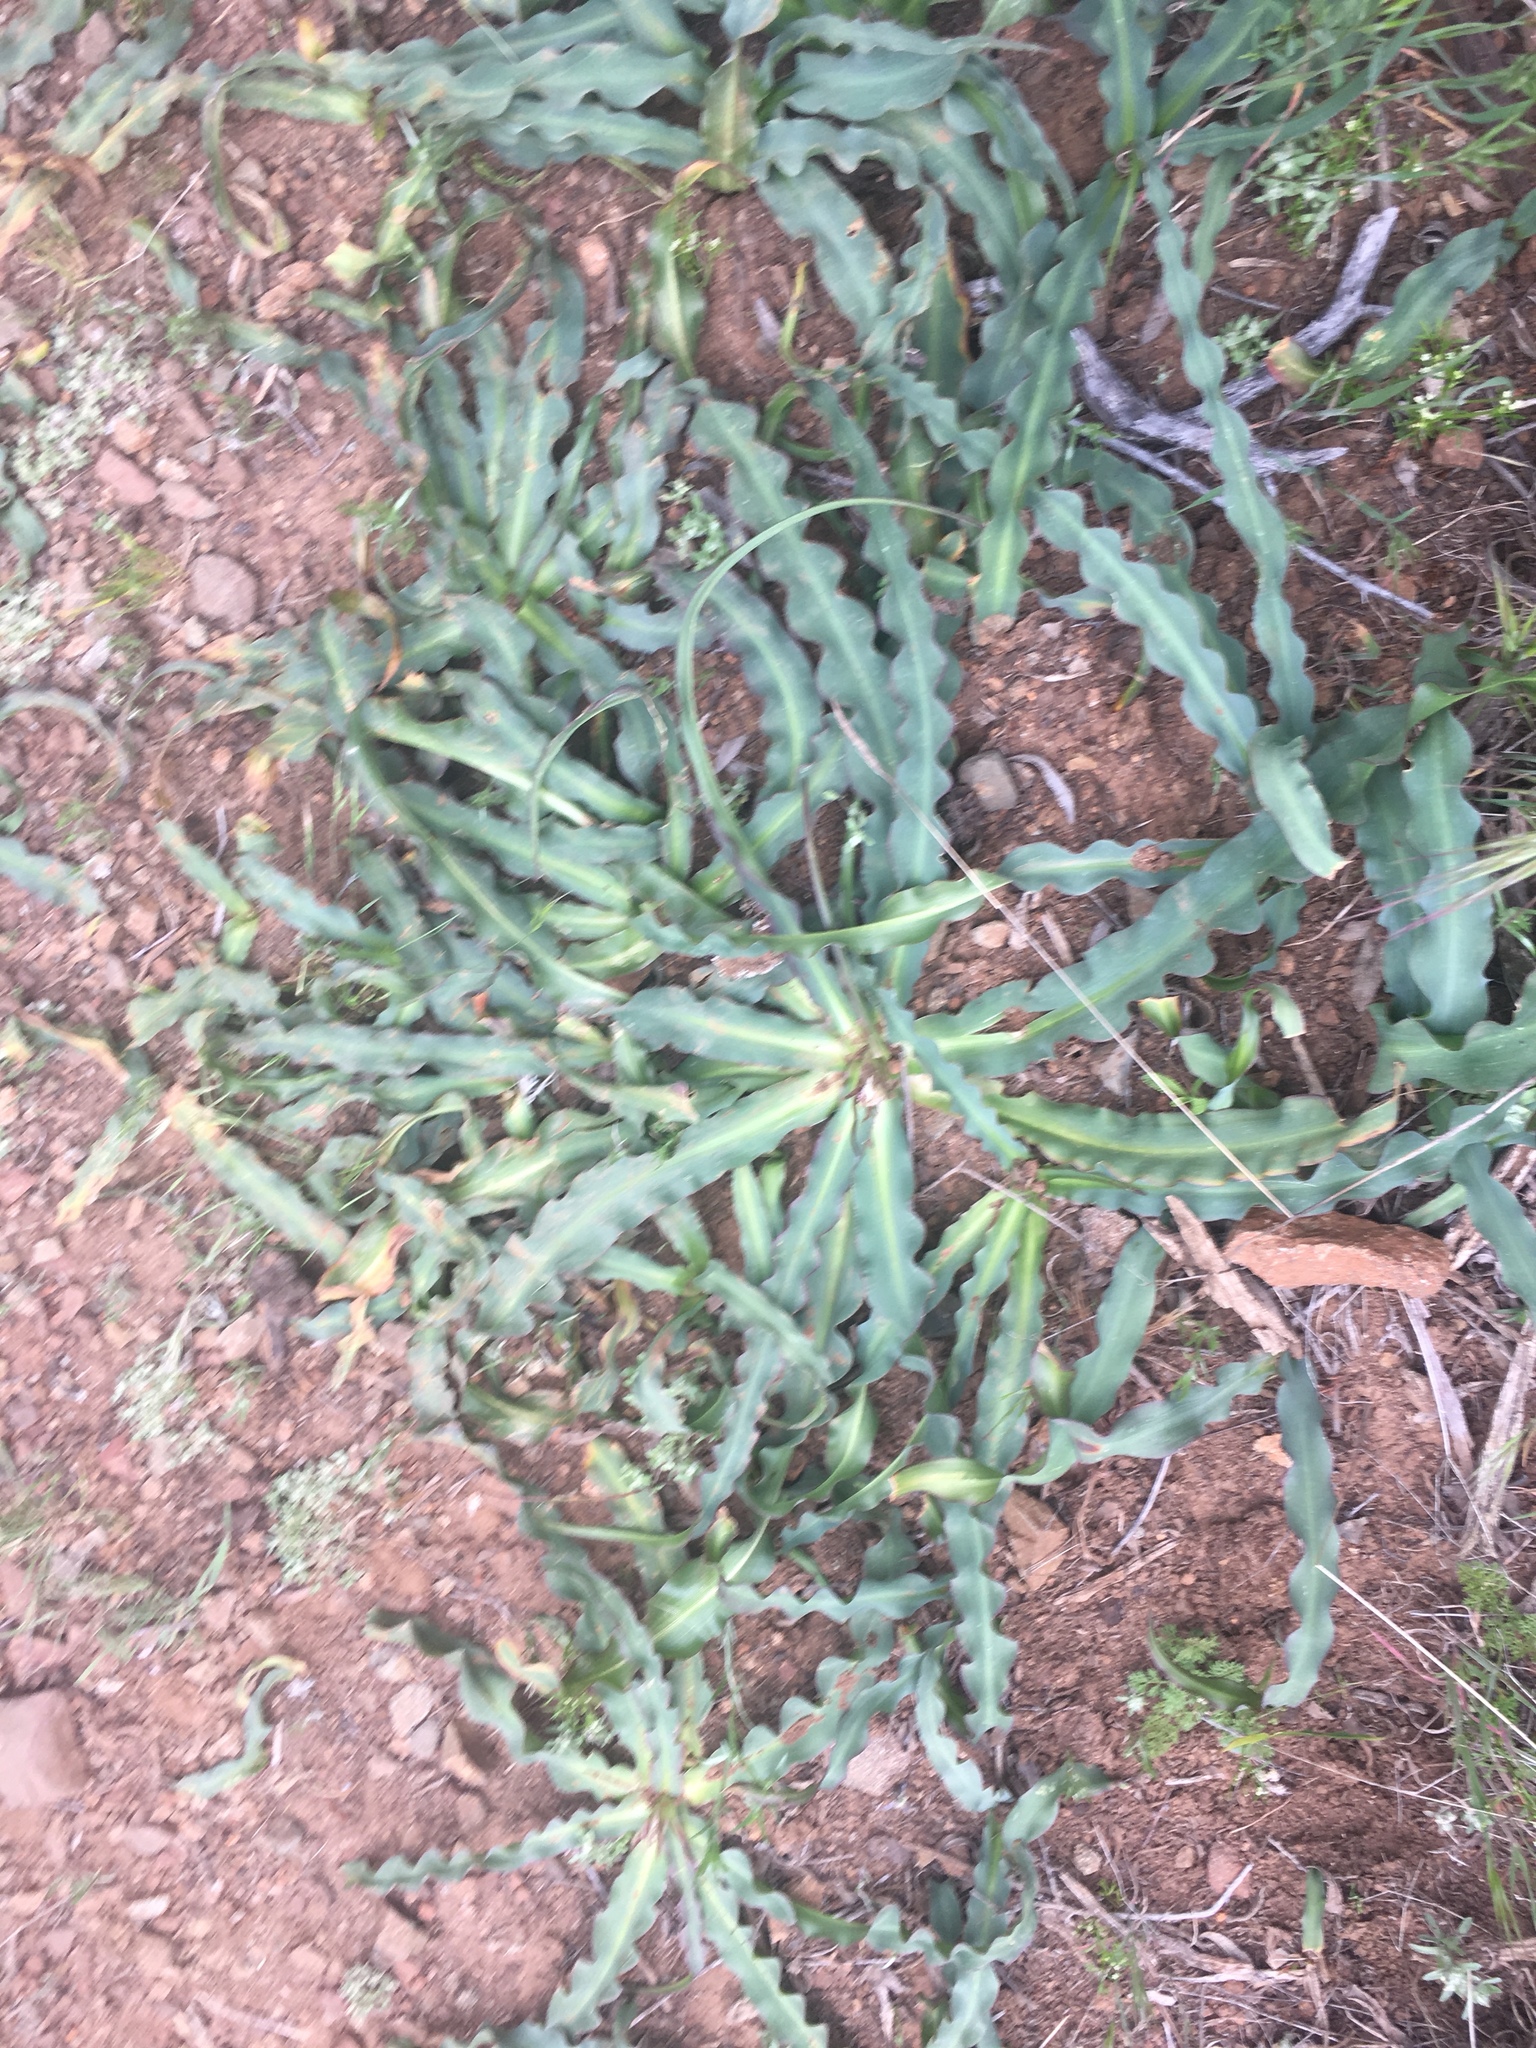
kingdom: Plantae
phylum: Tracheophyta
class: Liliopsida
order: Asparagales
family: Asparagaceae
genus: Chlorogalum
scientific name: Chlorogalum pomeridianum
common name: Amole
